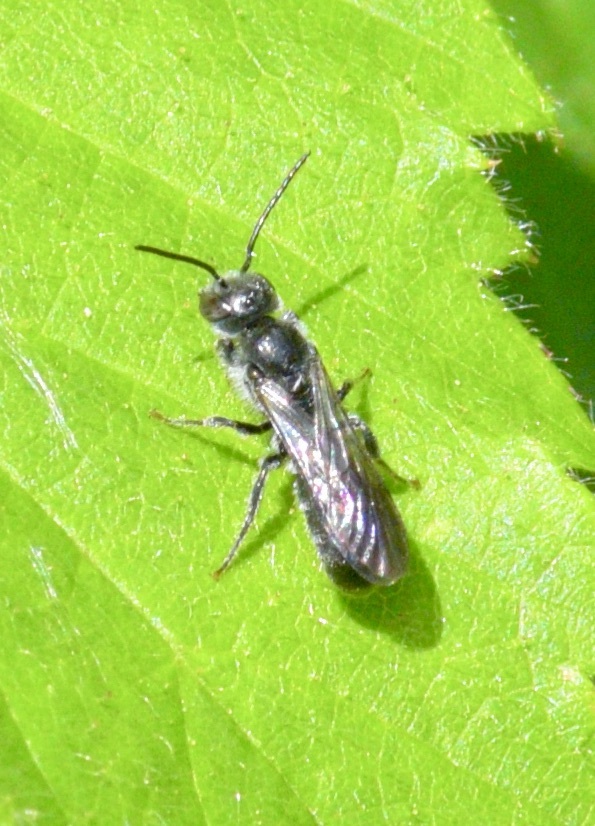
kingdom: Animalia
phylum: Arthropoda
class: Insecta
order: Hymenoptera
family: Megachilidae
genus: Chelostoma
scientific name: Chelostoma philadelphi
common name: Mock-orange scissor bee
